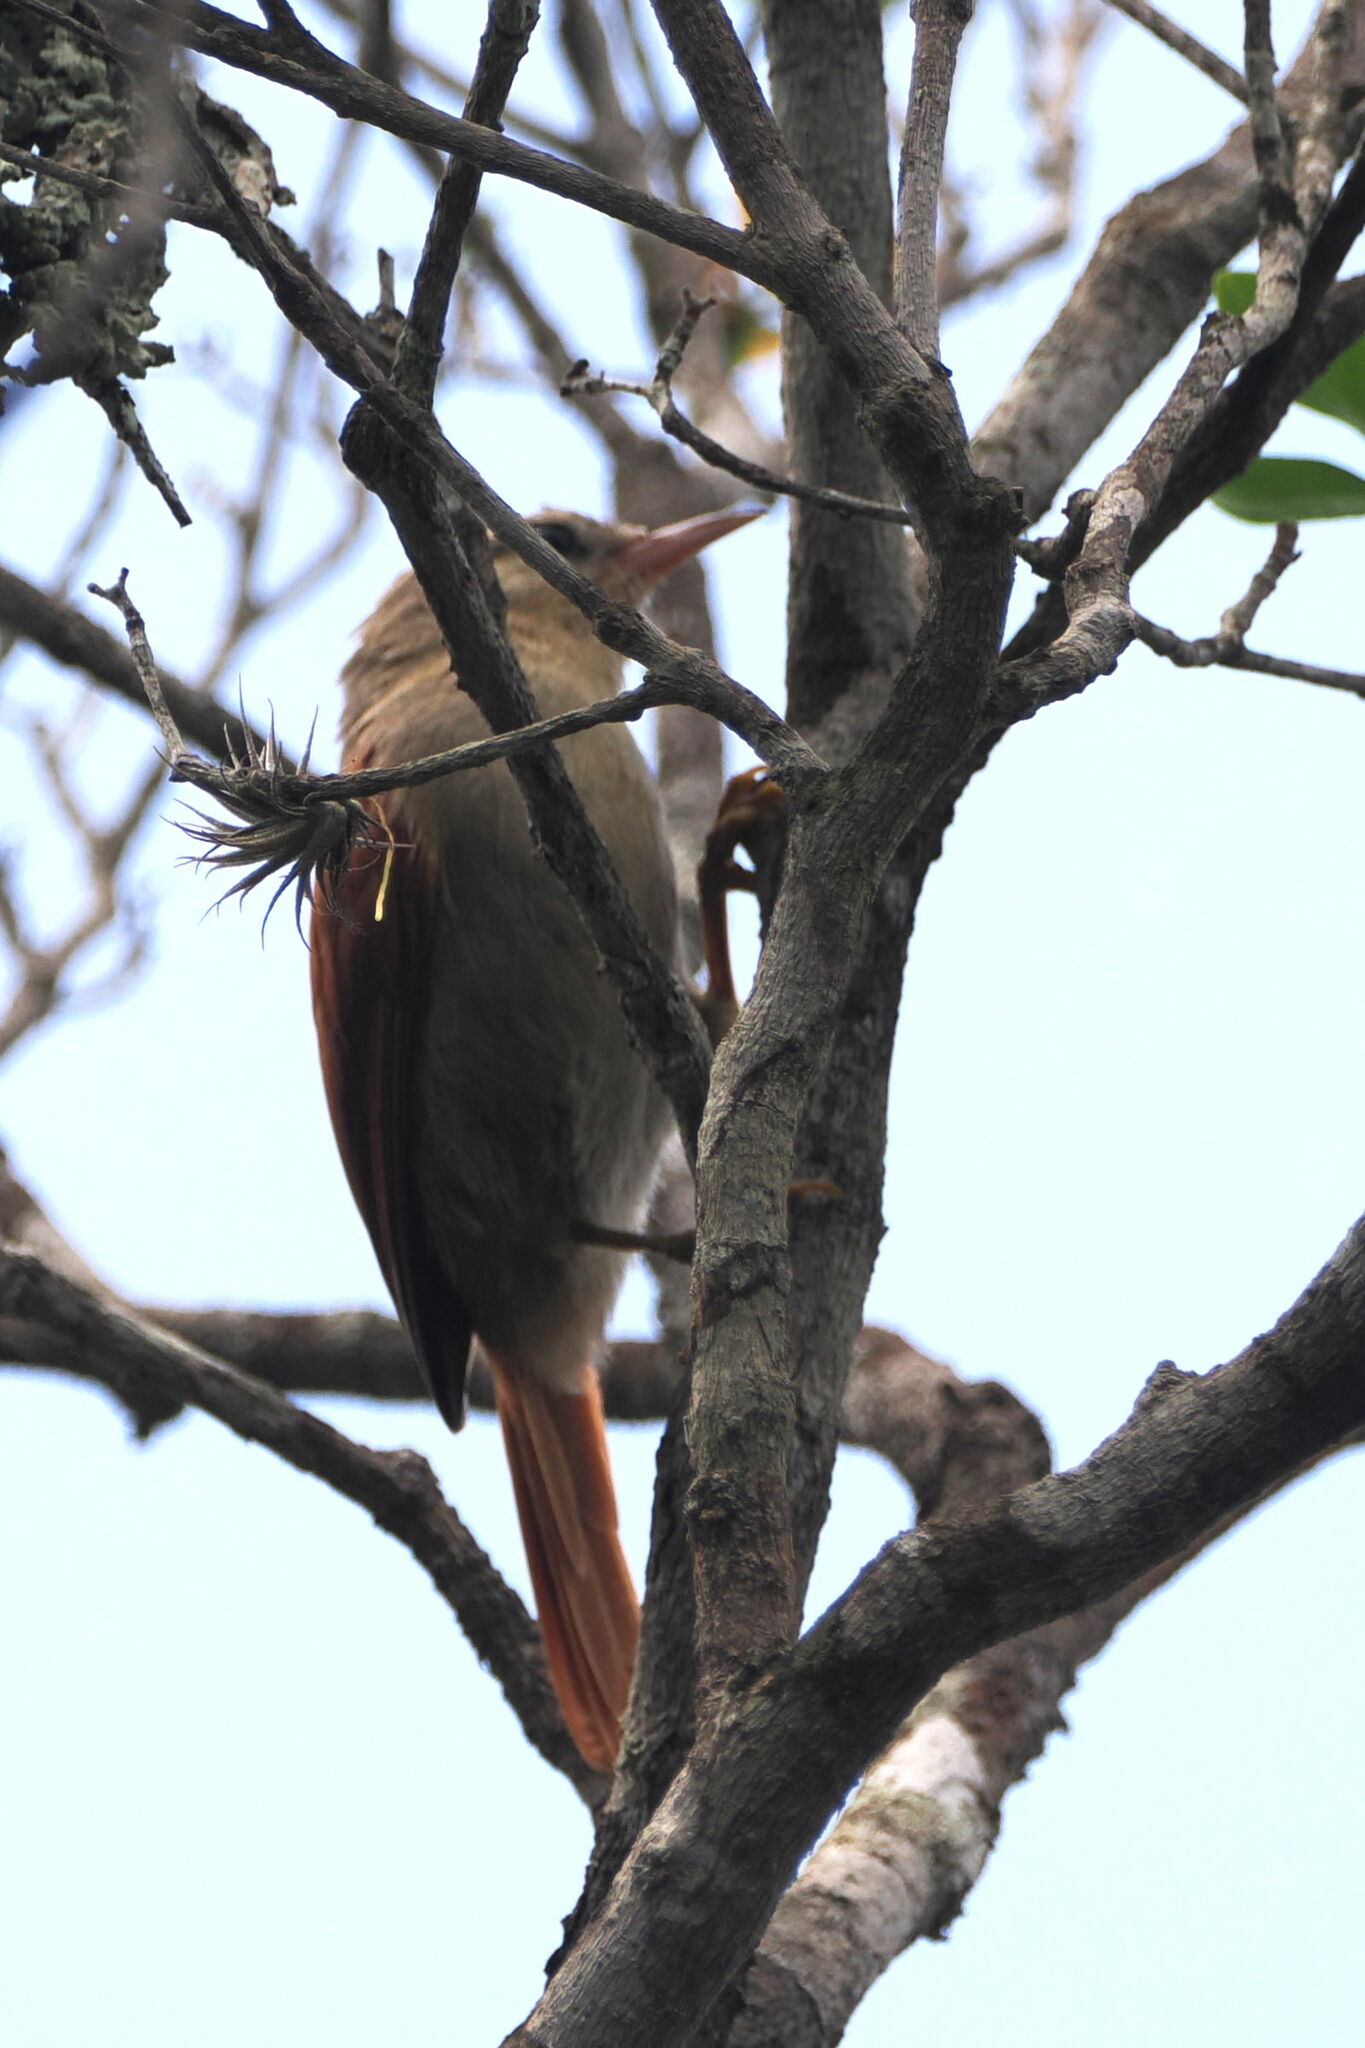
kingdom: Animalia
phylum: Chordata
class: Aves
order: Passeriformes
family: Furnariidae
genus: Cranioleuca
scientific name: Cranioleuca semicinerea
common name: Grey-headed spinetail
